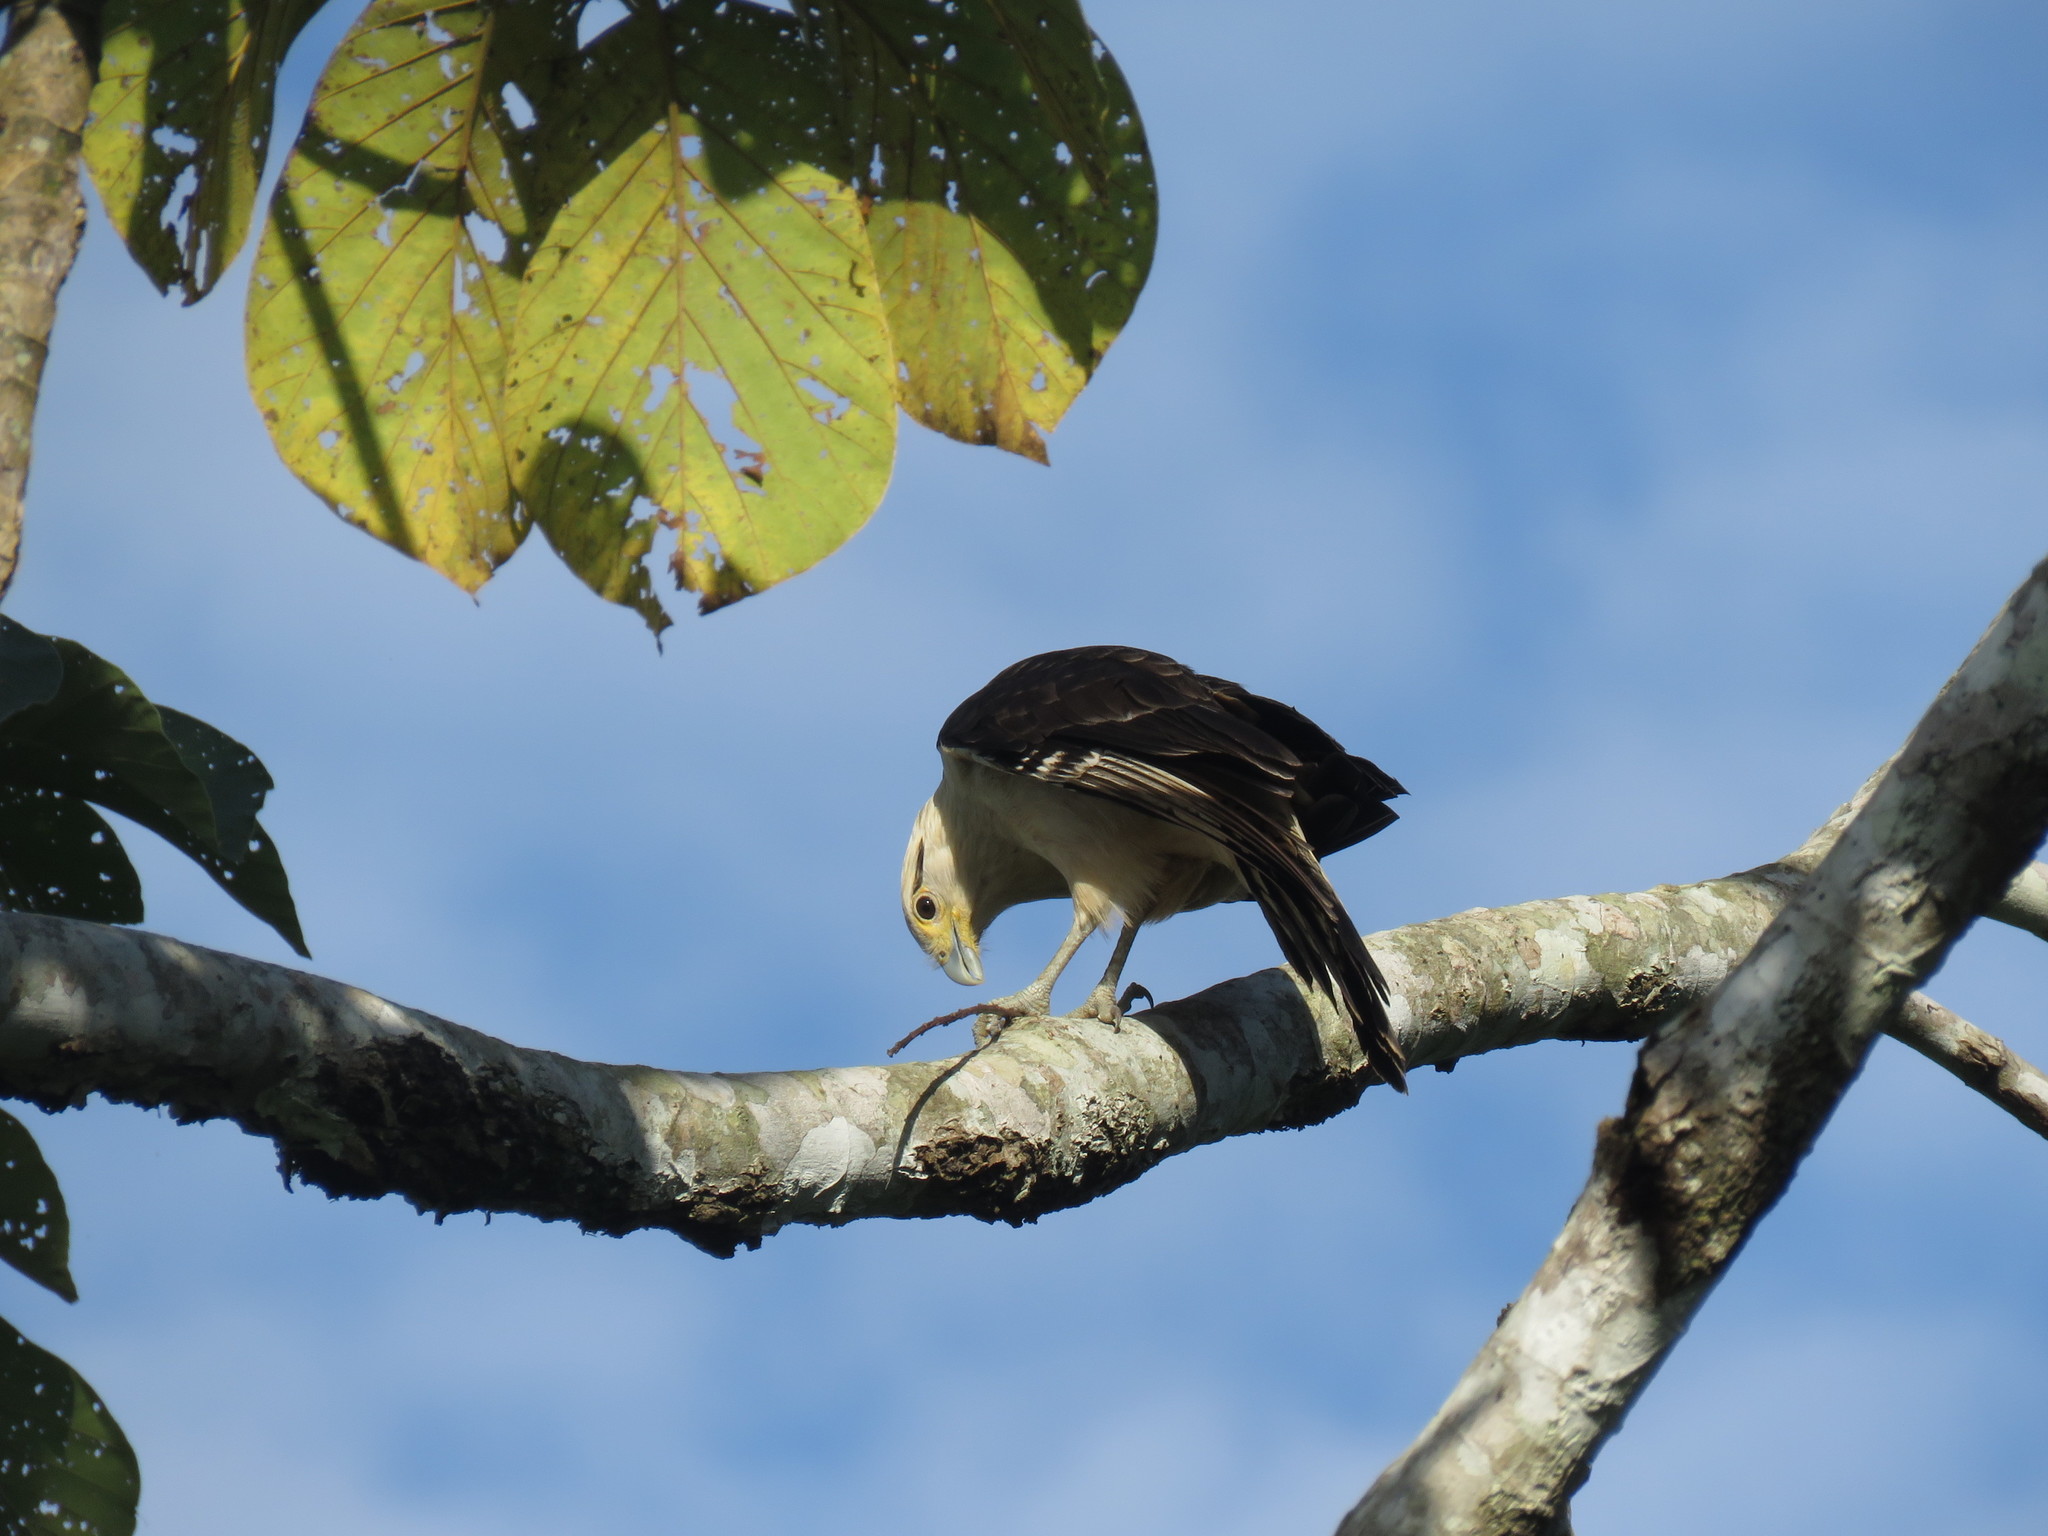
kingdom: Animalia
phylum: Chordata
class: Aves
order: Falconiformes
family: Falconidae
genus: Daptrius
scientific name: Daptrius
